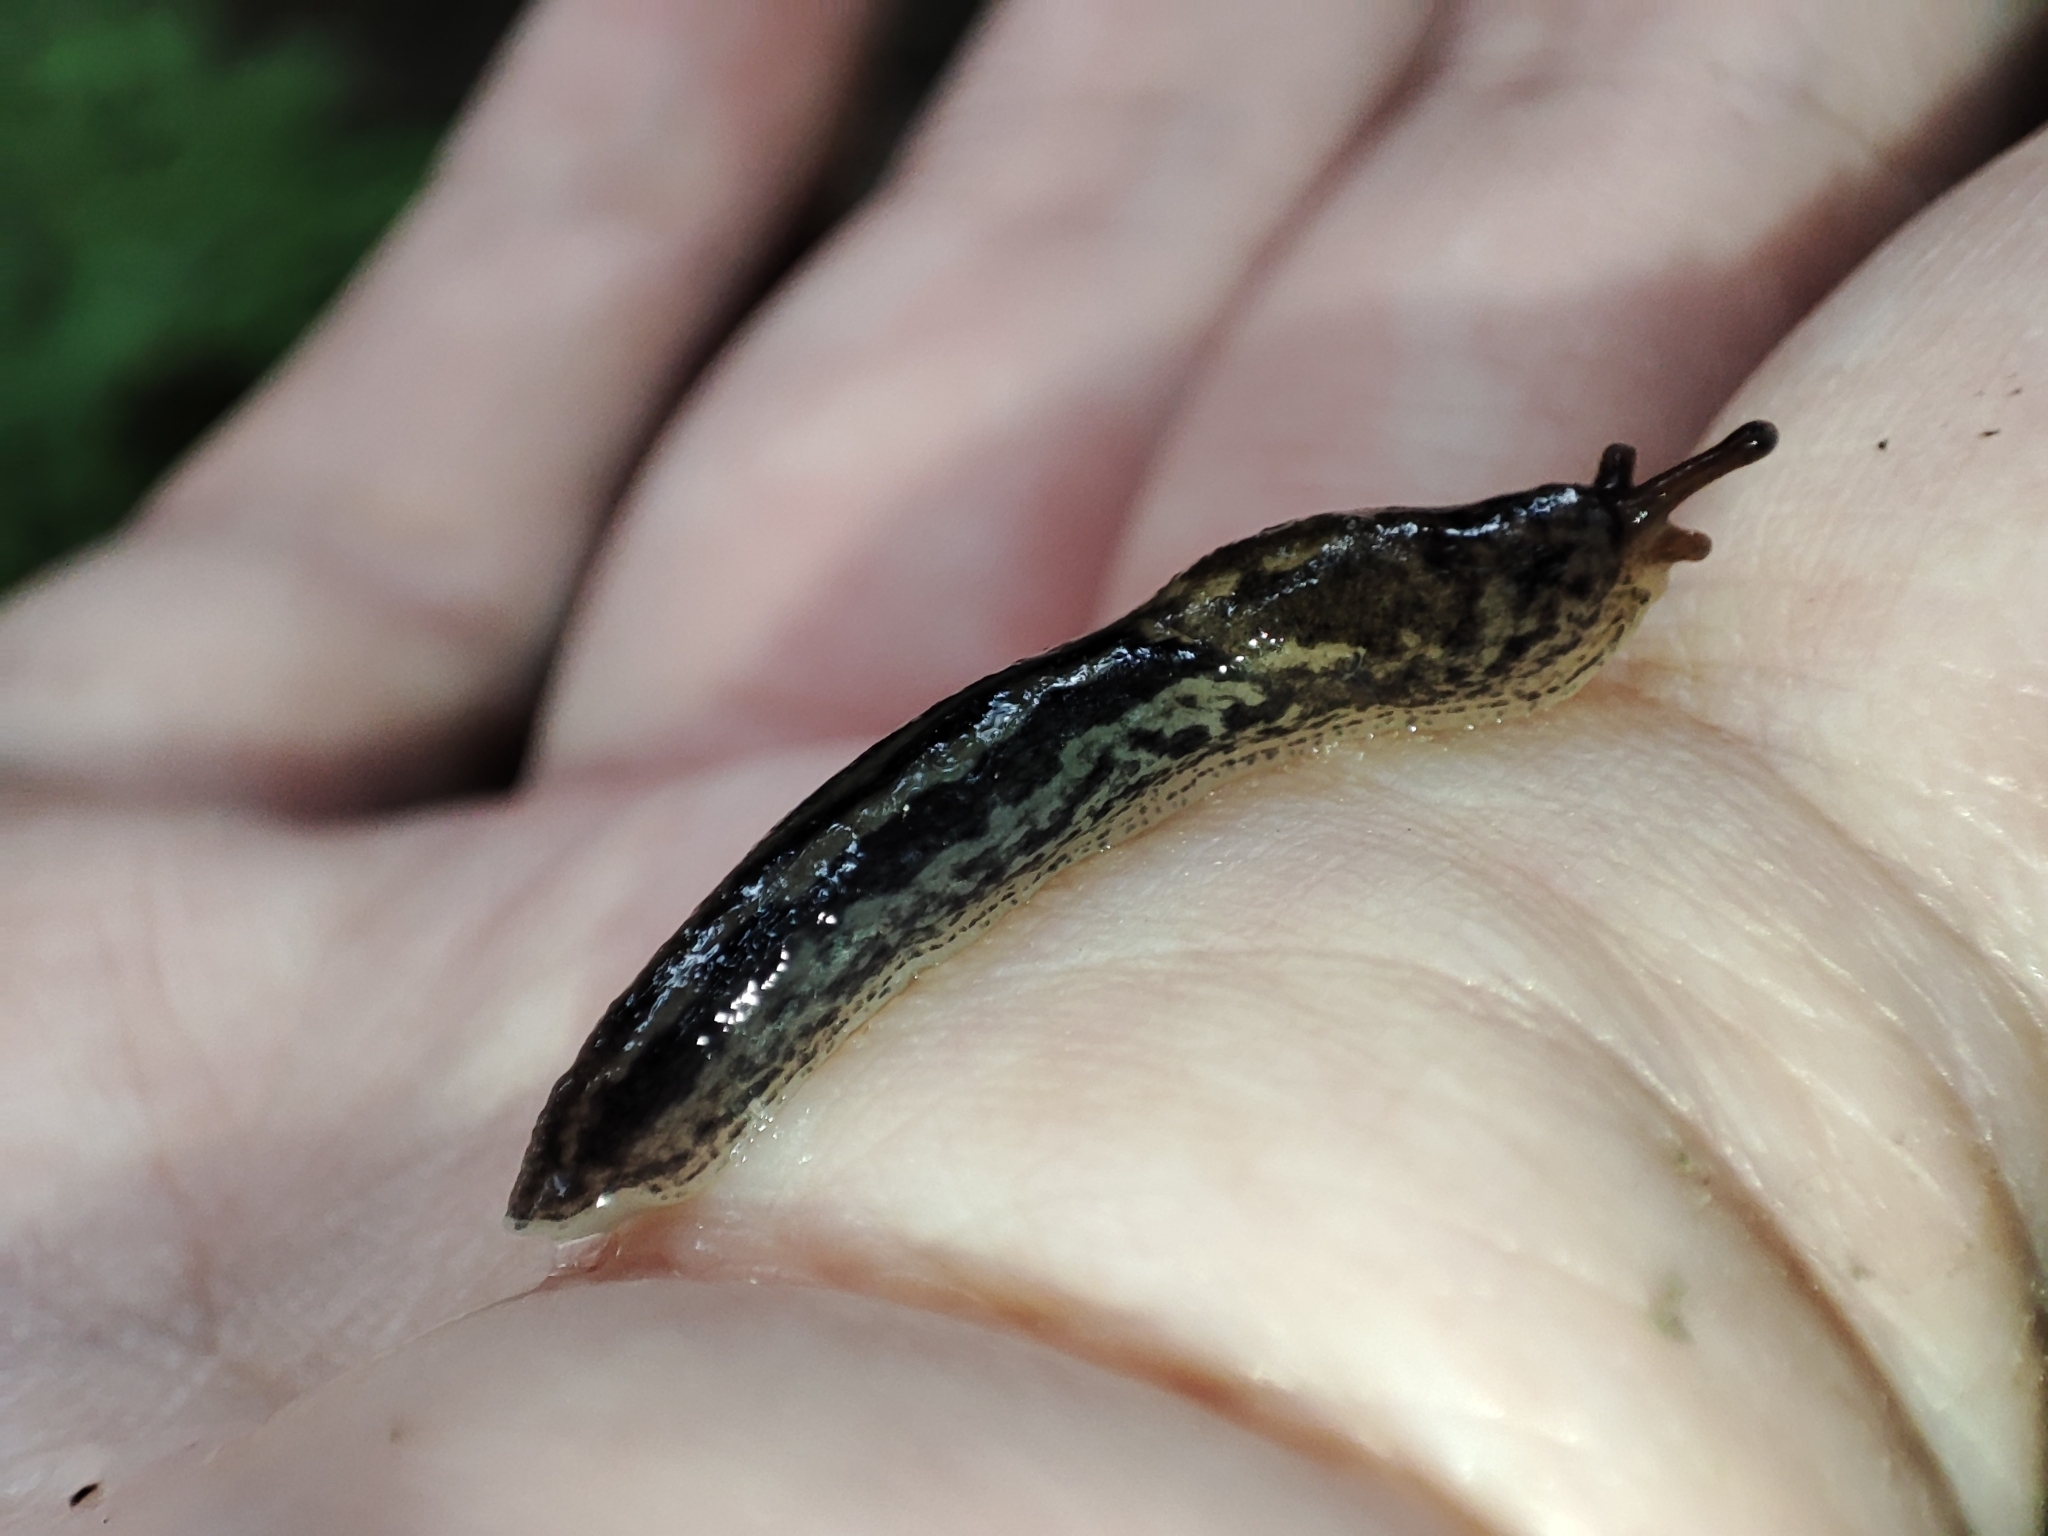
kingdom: Animalia
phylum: Mollusca
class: Gastropoda
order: Stylommatophora
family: Limacidae
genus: Limax
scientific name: Limax maximus
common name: Great grey slug
